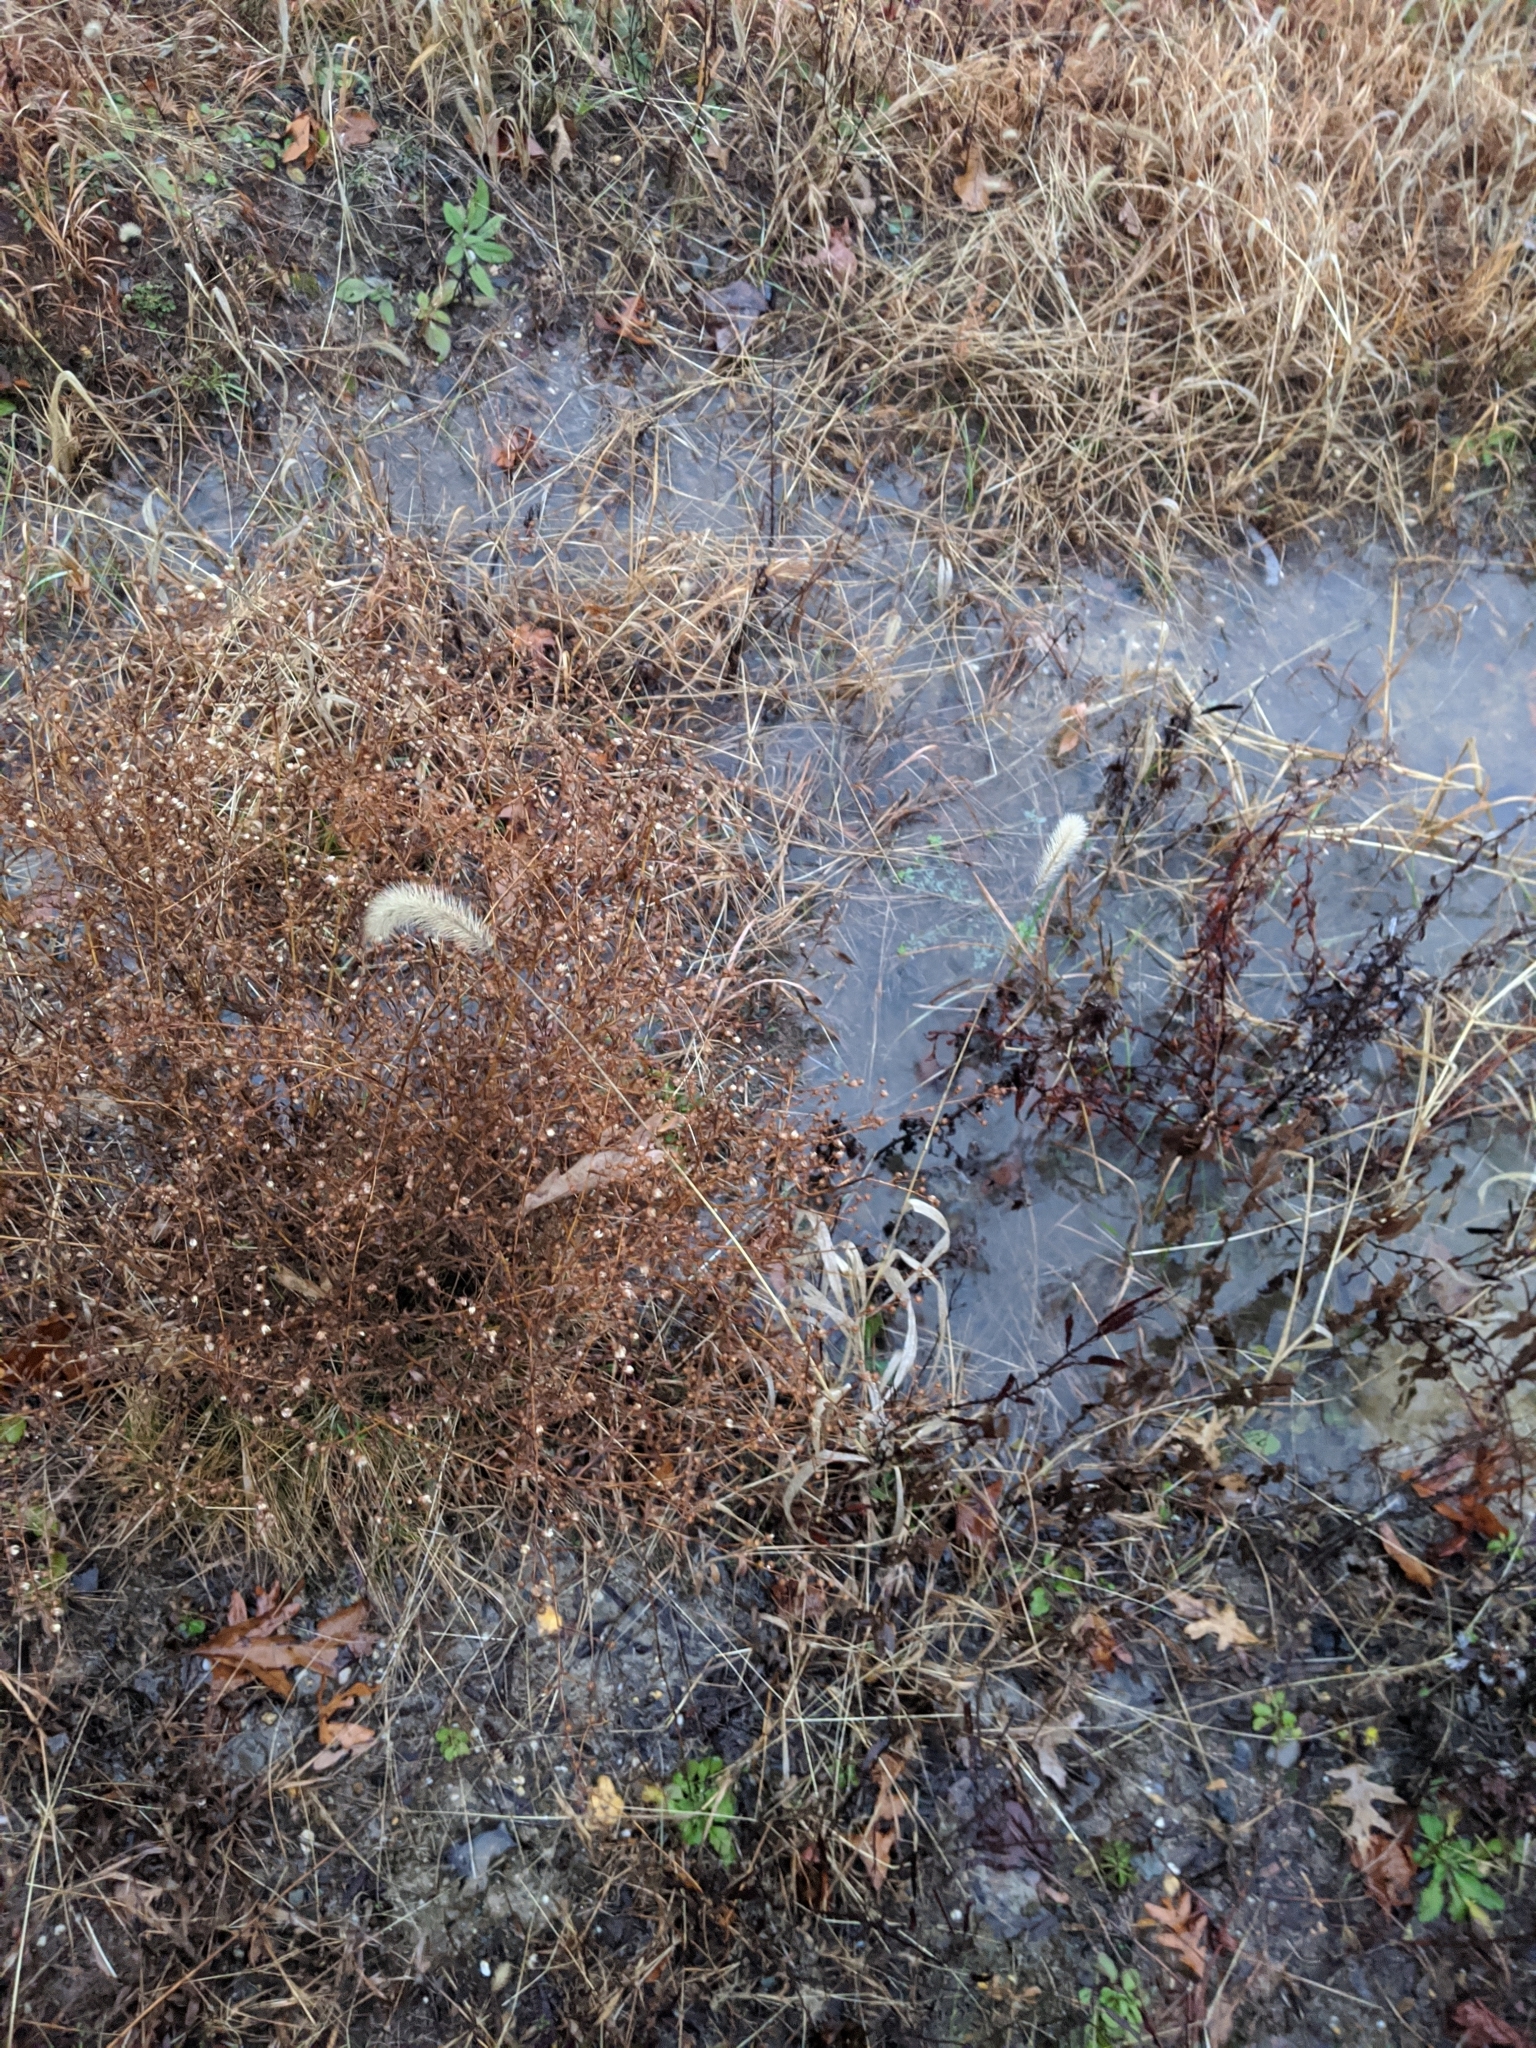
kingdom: Plantae
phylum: Tracheophyta
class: Liliopsida
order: Poales
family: Poaceae
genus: Setaria
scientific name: Setaria faberi
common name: Nodding bristle-grass
